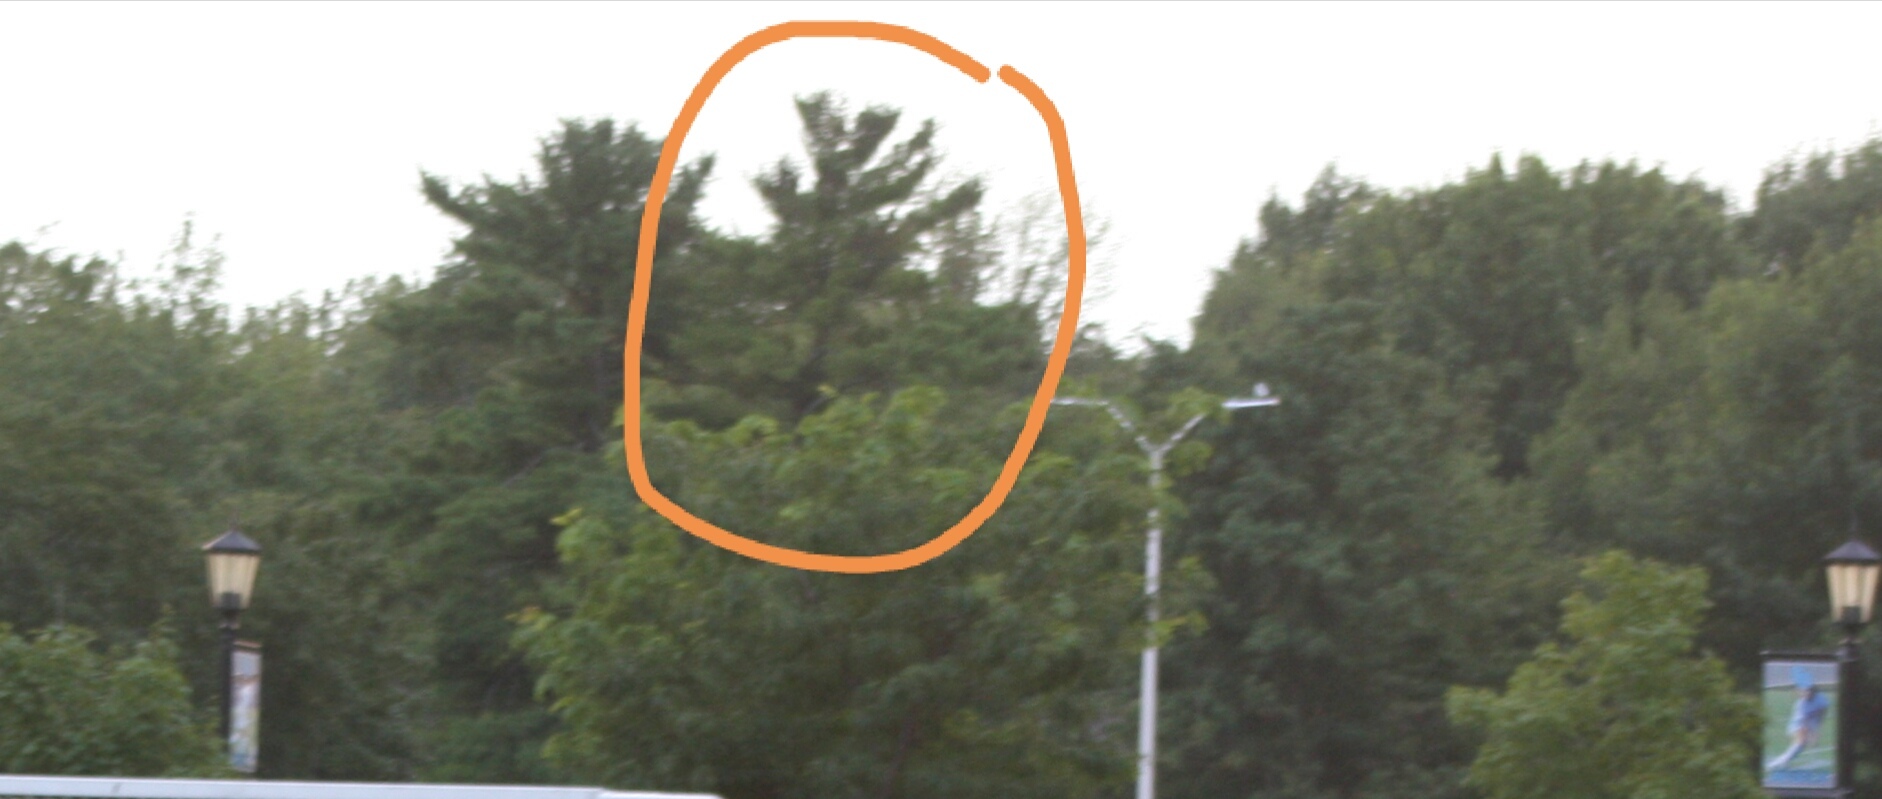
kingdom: Plantae
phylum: Tracheophyta
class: Pinopsida
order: Pinales
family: Pinaceae
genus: Pinus
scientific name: Pinus strobus
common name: Weymouth pine
